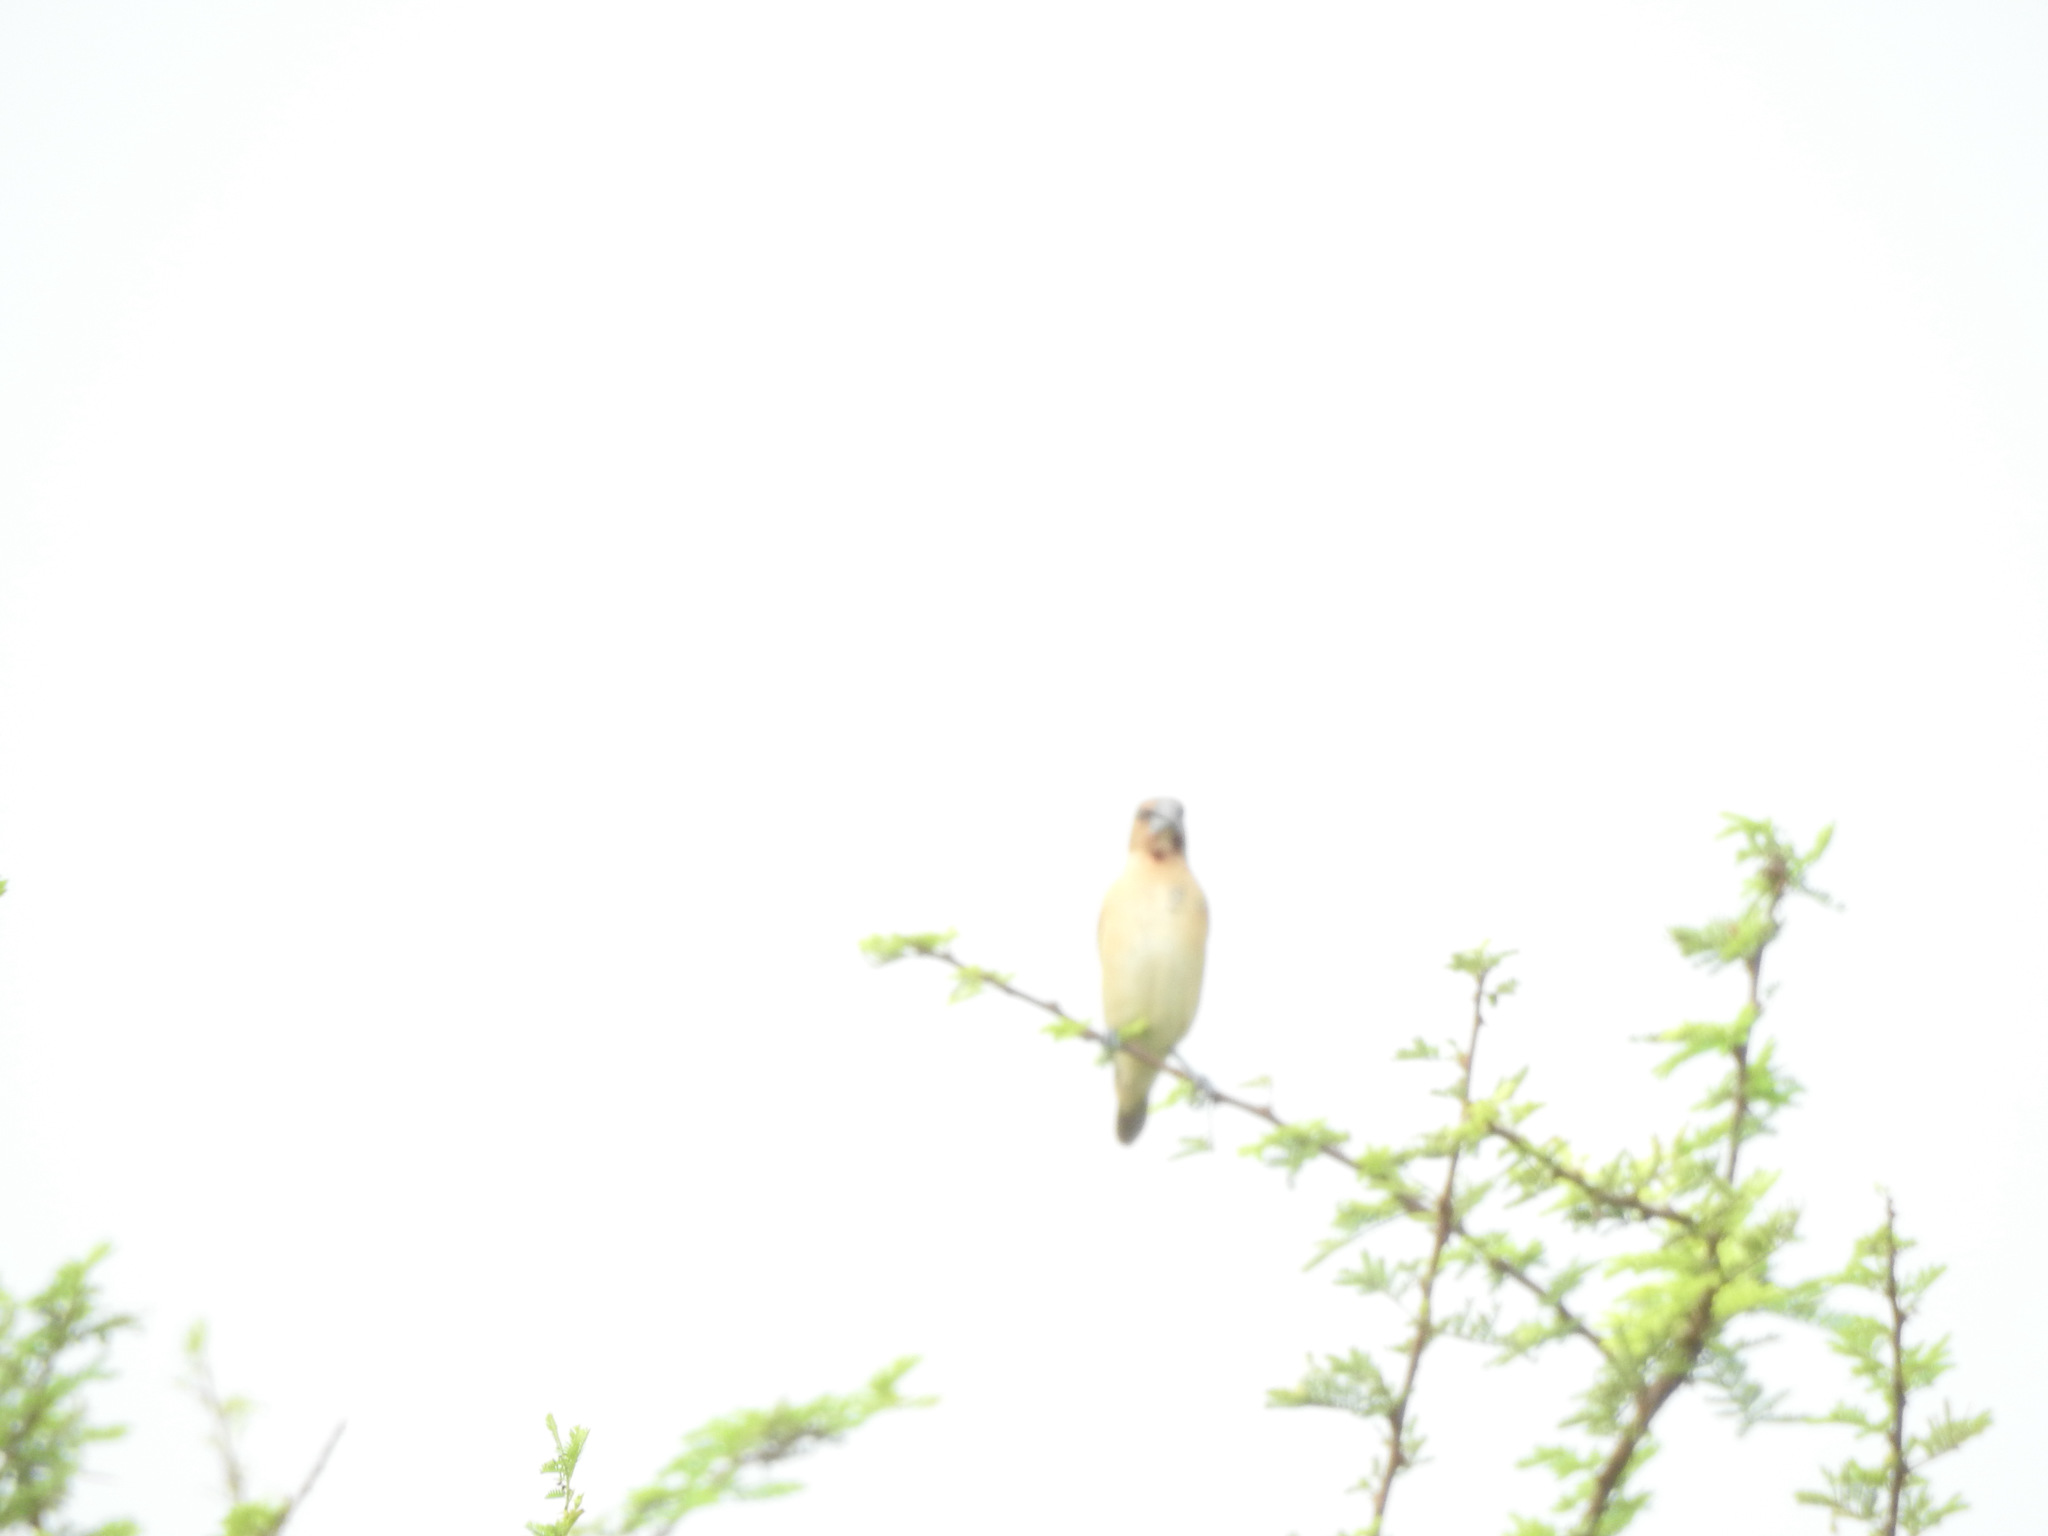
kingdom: Animalia
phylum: Chordata
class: Aves
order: Passeriformes
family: Estrildidae
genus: Lonchura
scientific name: Lonchura punctulata
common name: Scaly-breasted munia
